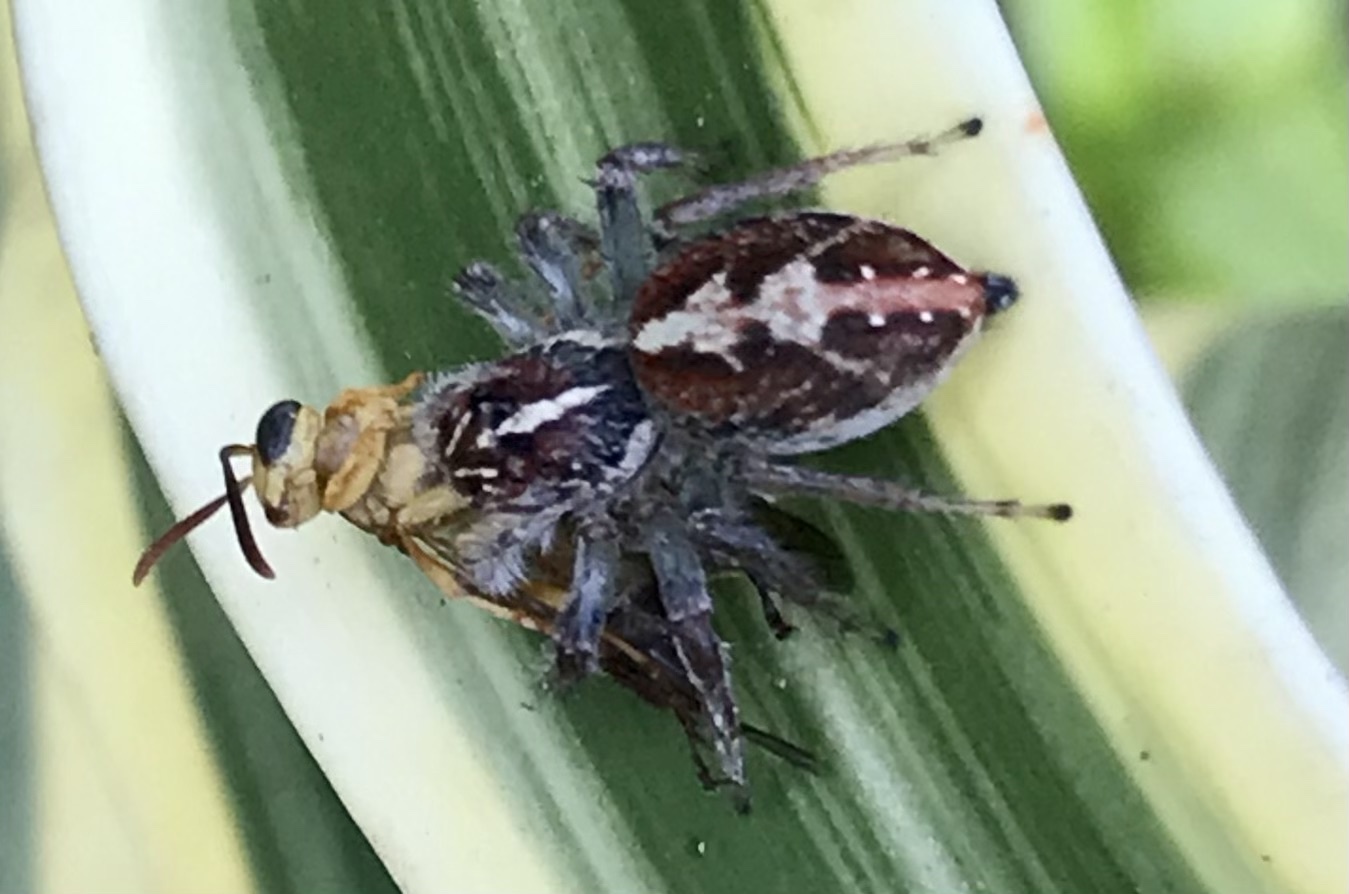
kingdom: Animalia
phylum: Arthropoda
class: Arachnida
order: Araneae
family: Salticidae
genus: Frigga
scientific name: Frigga coronigera
